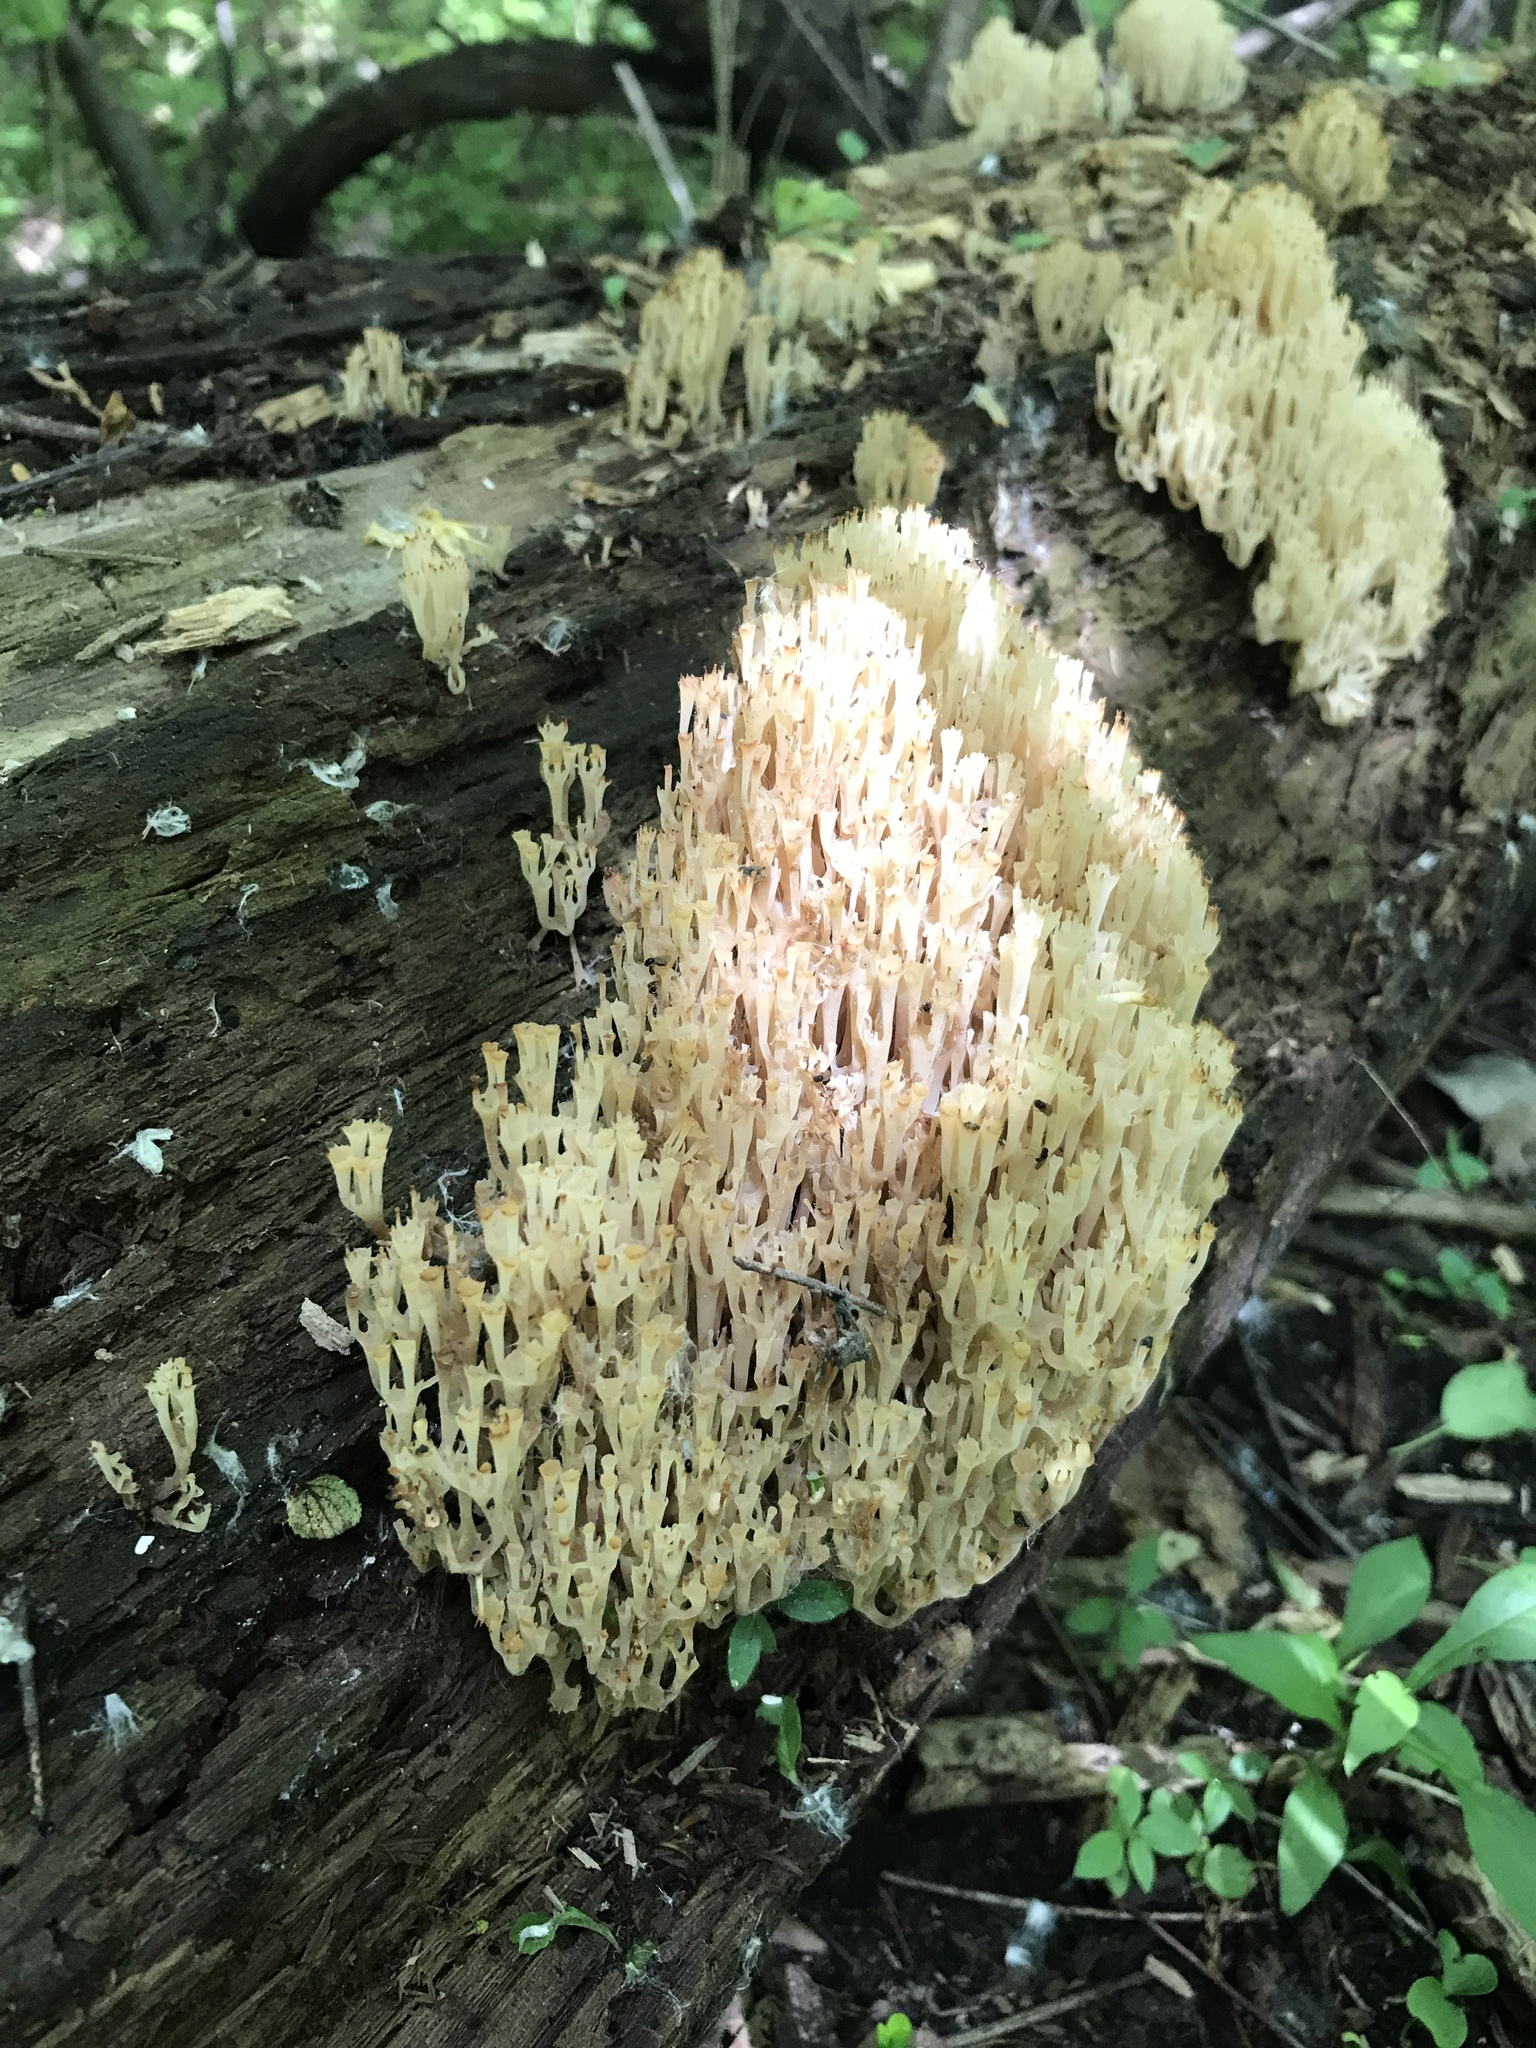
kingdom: Fungi
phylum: Basidiomycota
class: Agaricomycetes
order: Russulales
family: Auriscalpiaceae
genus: Artomyces
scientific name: Artomyces pyxidatus
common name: Crown-tipped coral fungus
